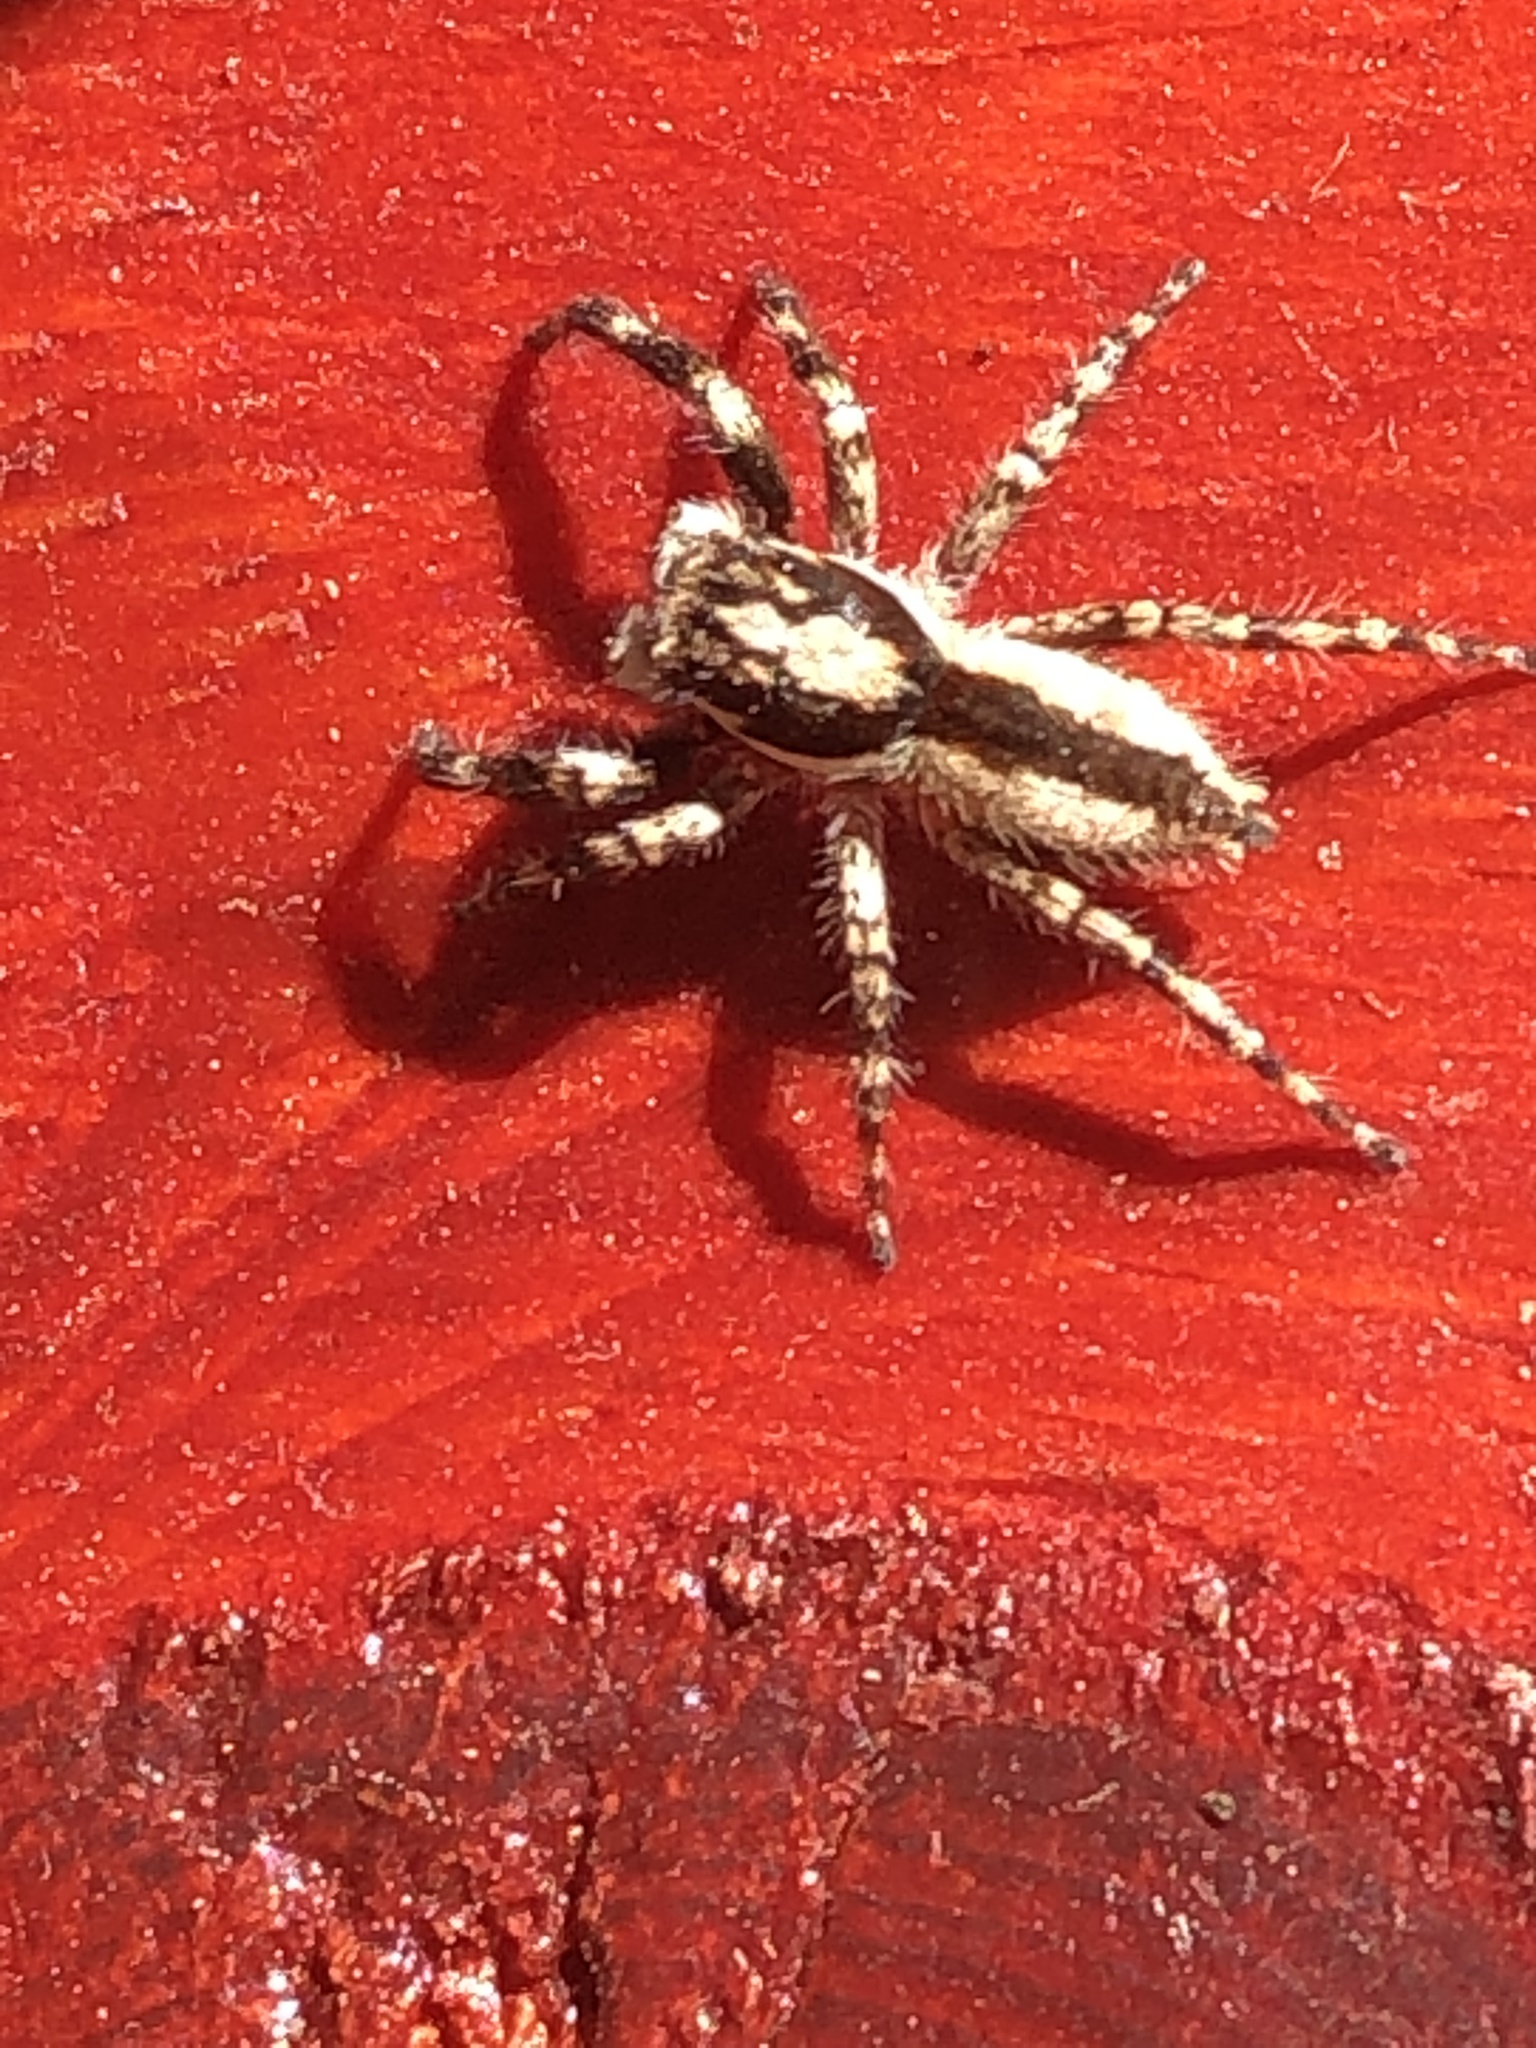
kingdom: Animalia
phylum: Arthropoda
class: Arachnida
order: Araneae
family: Salticidae
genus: Menemerus
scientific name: Menemerus bivittatus
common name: Gray wall jumper
